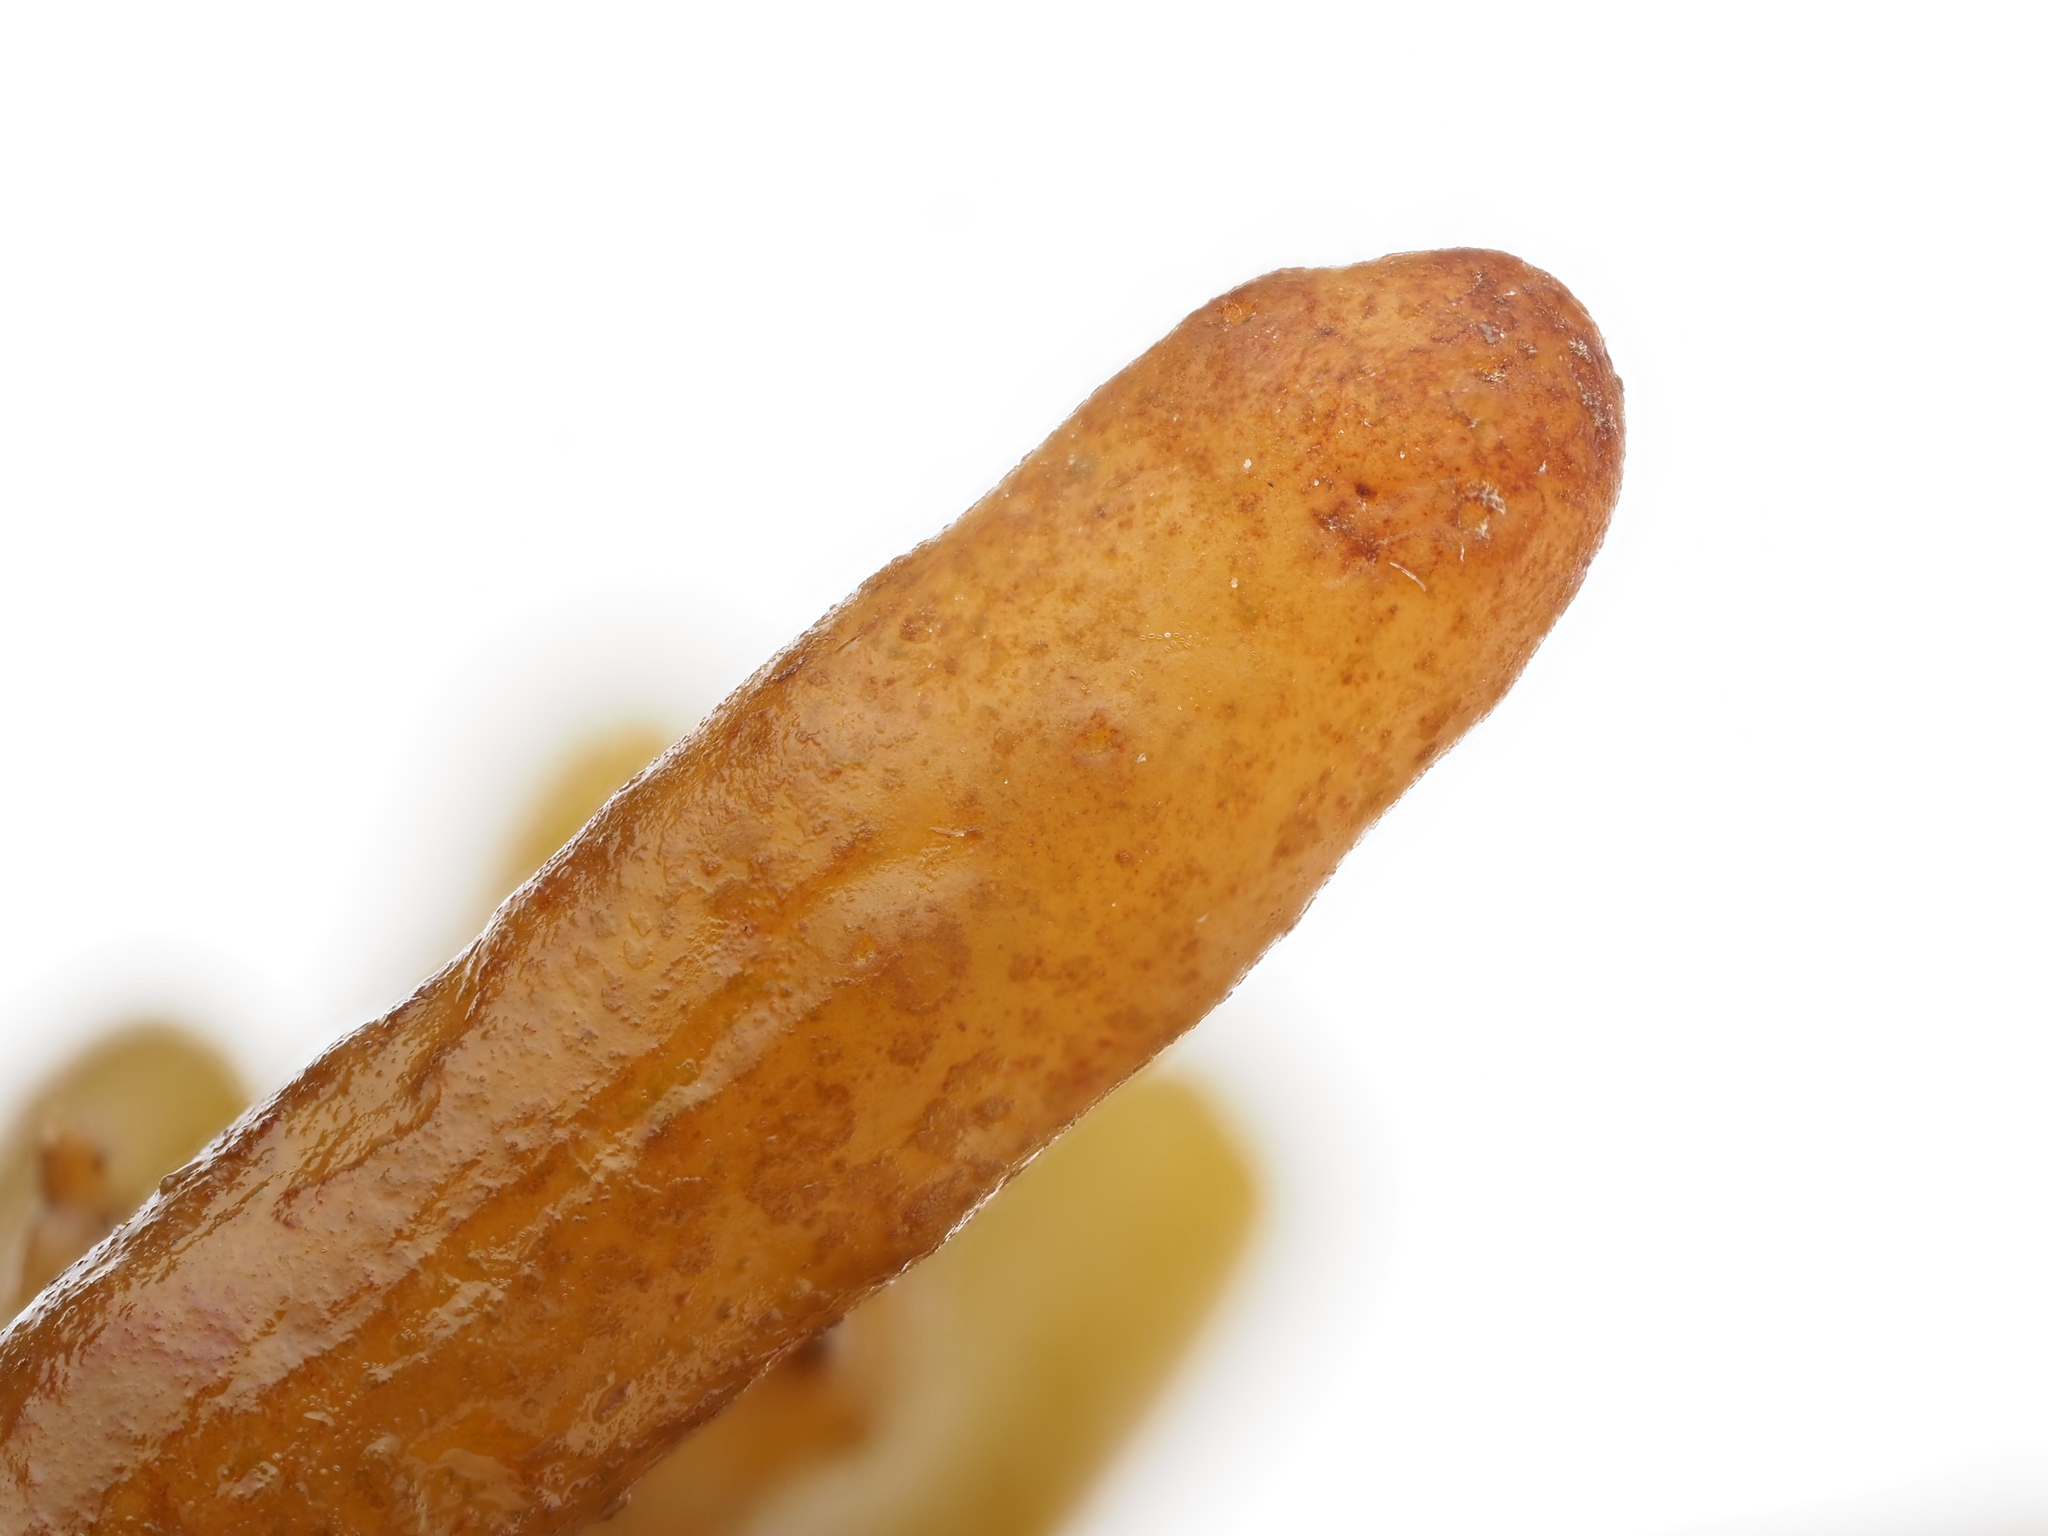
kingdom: Chromista
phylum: Ochrophyta
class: Phaeophyceae
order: Fucales
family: Sargassaceae
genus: Cystophora
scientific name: Cystophora torulosa
